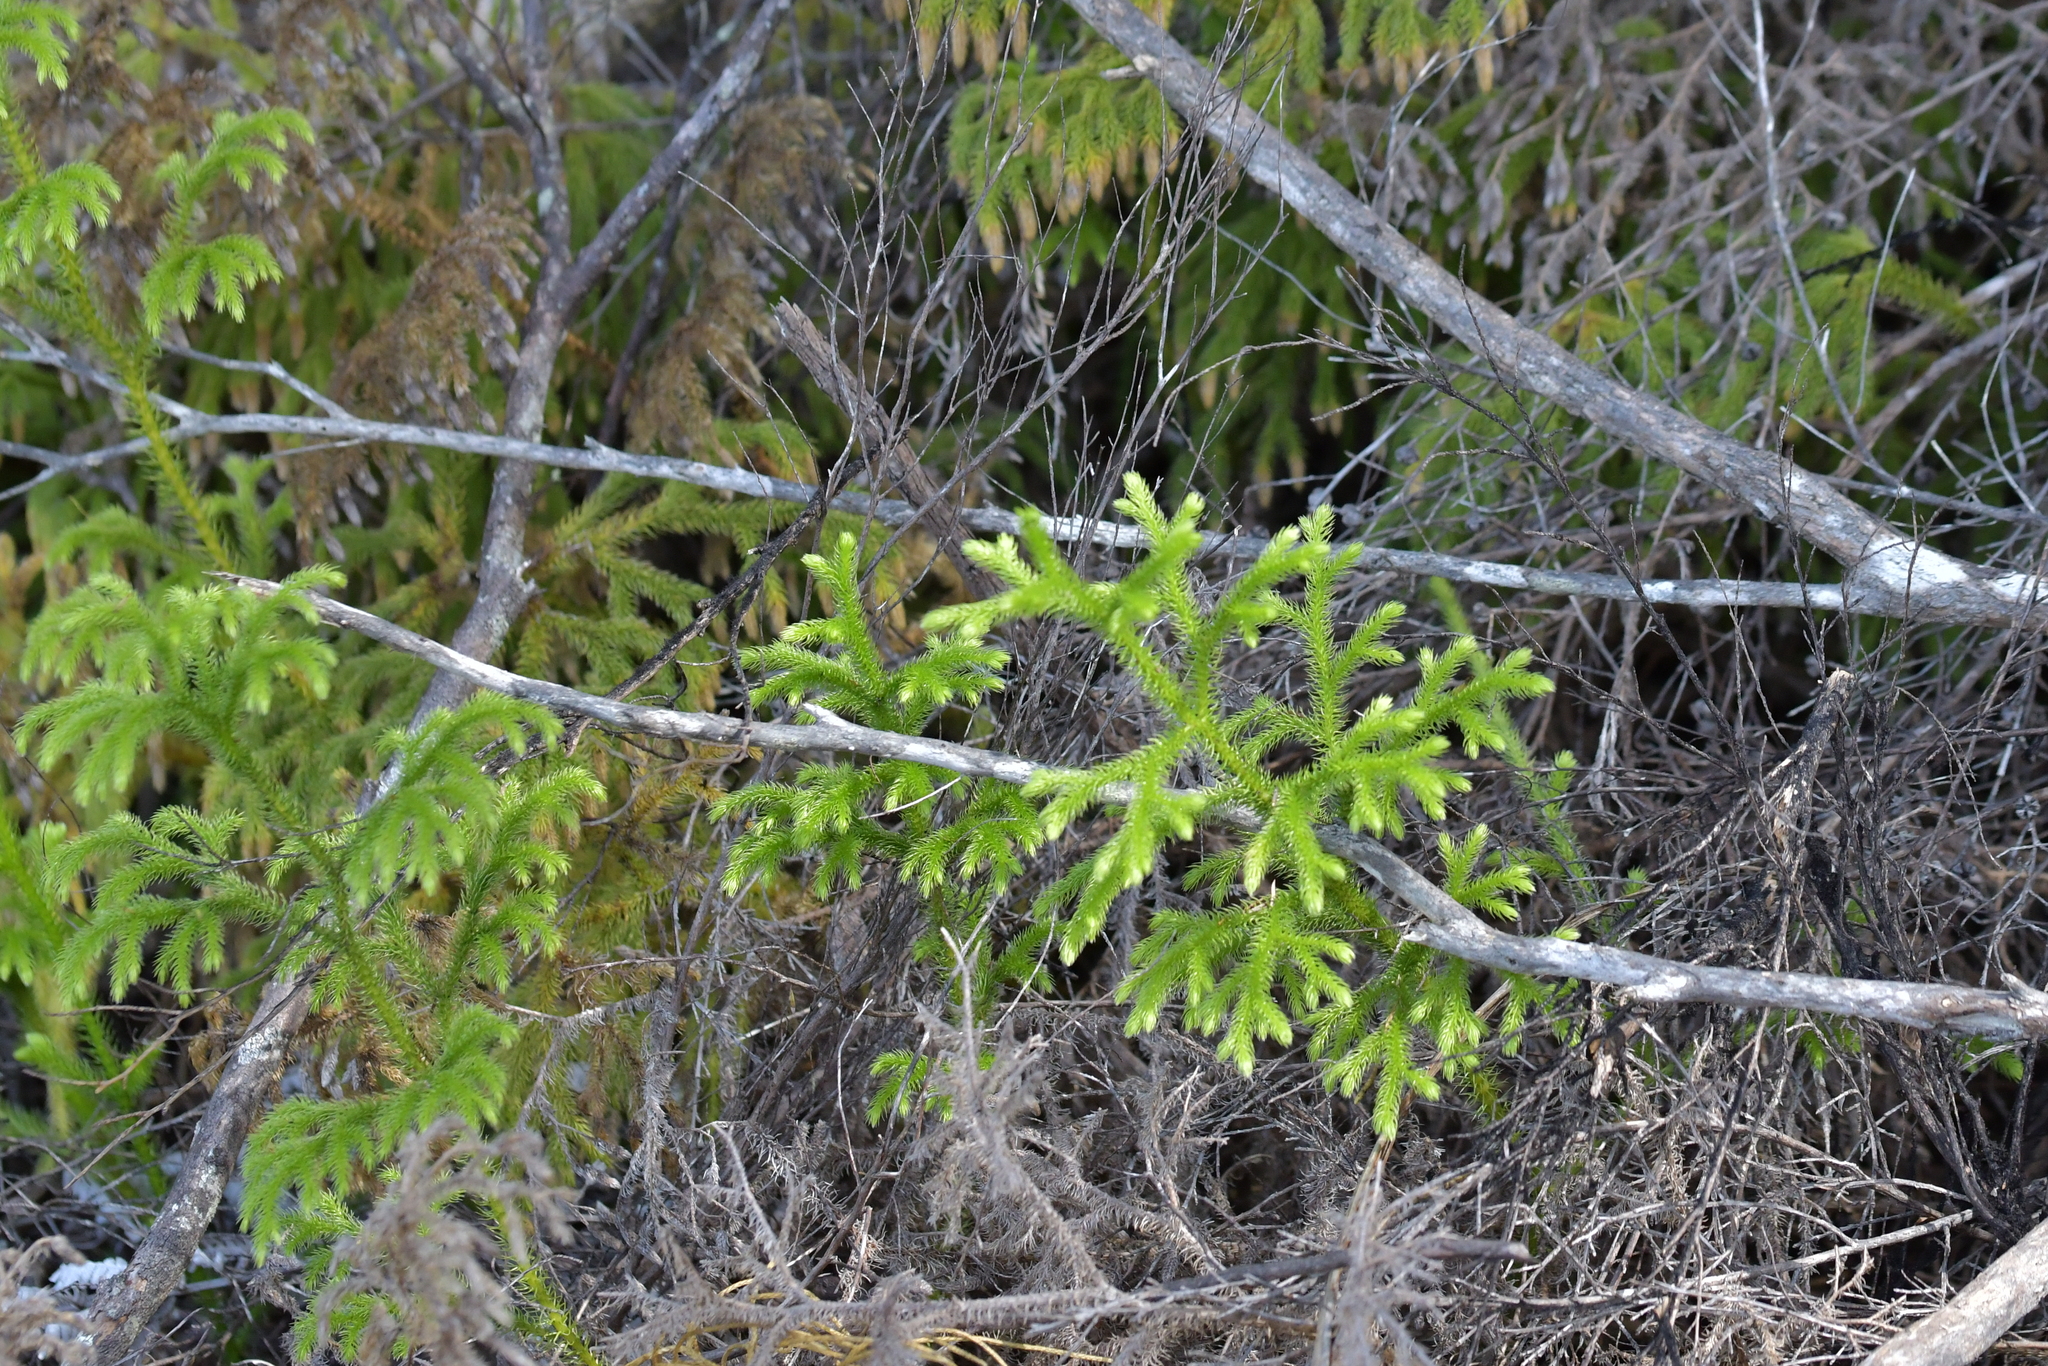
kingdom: Plantae
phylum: Tracheophyta
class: Lycopodiopsida
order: Lycopodiales
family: Lycopodiaceae
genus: Palhinhaea
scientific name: Palhinhaea cernua
